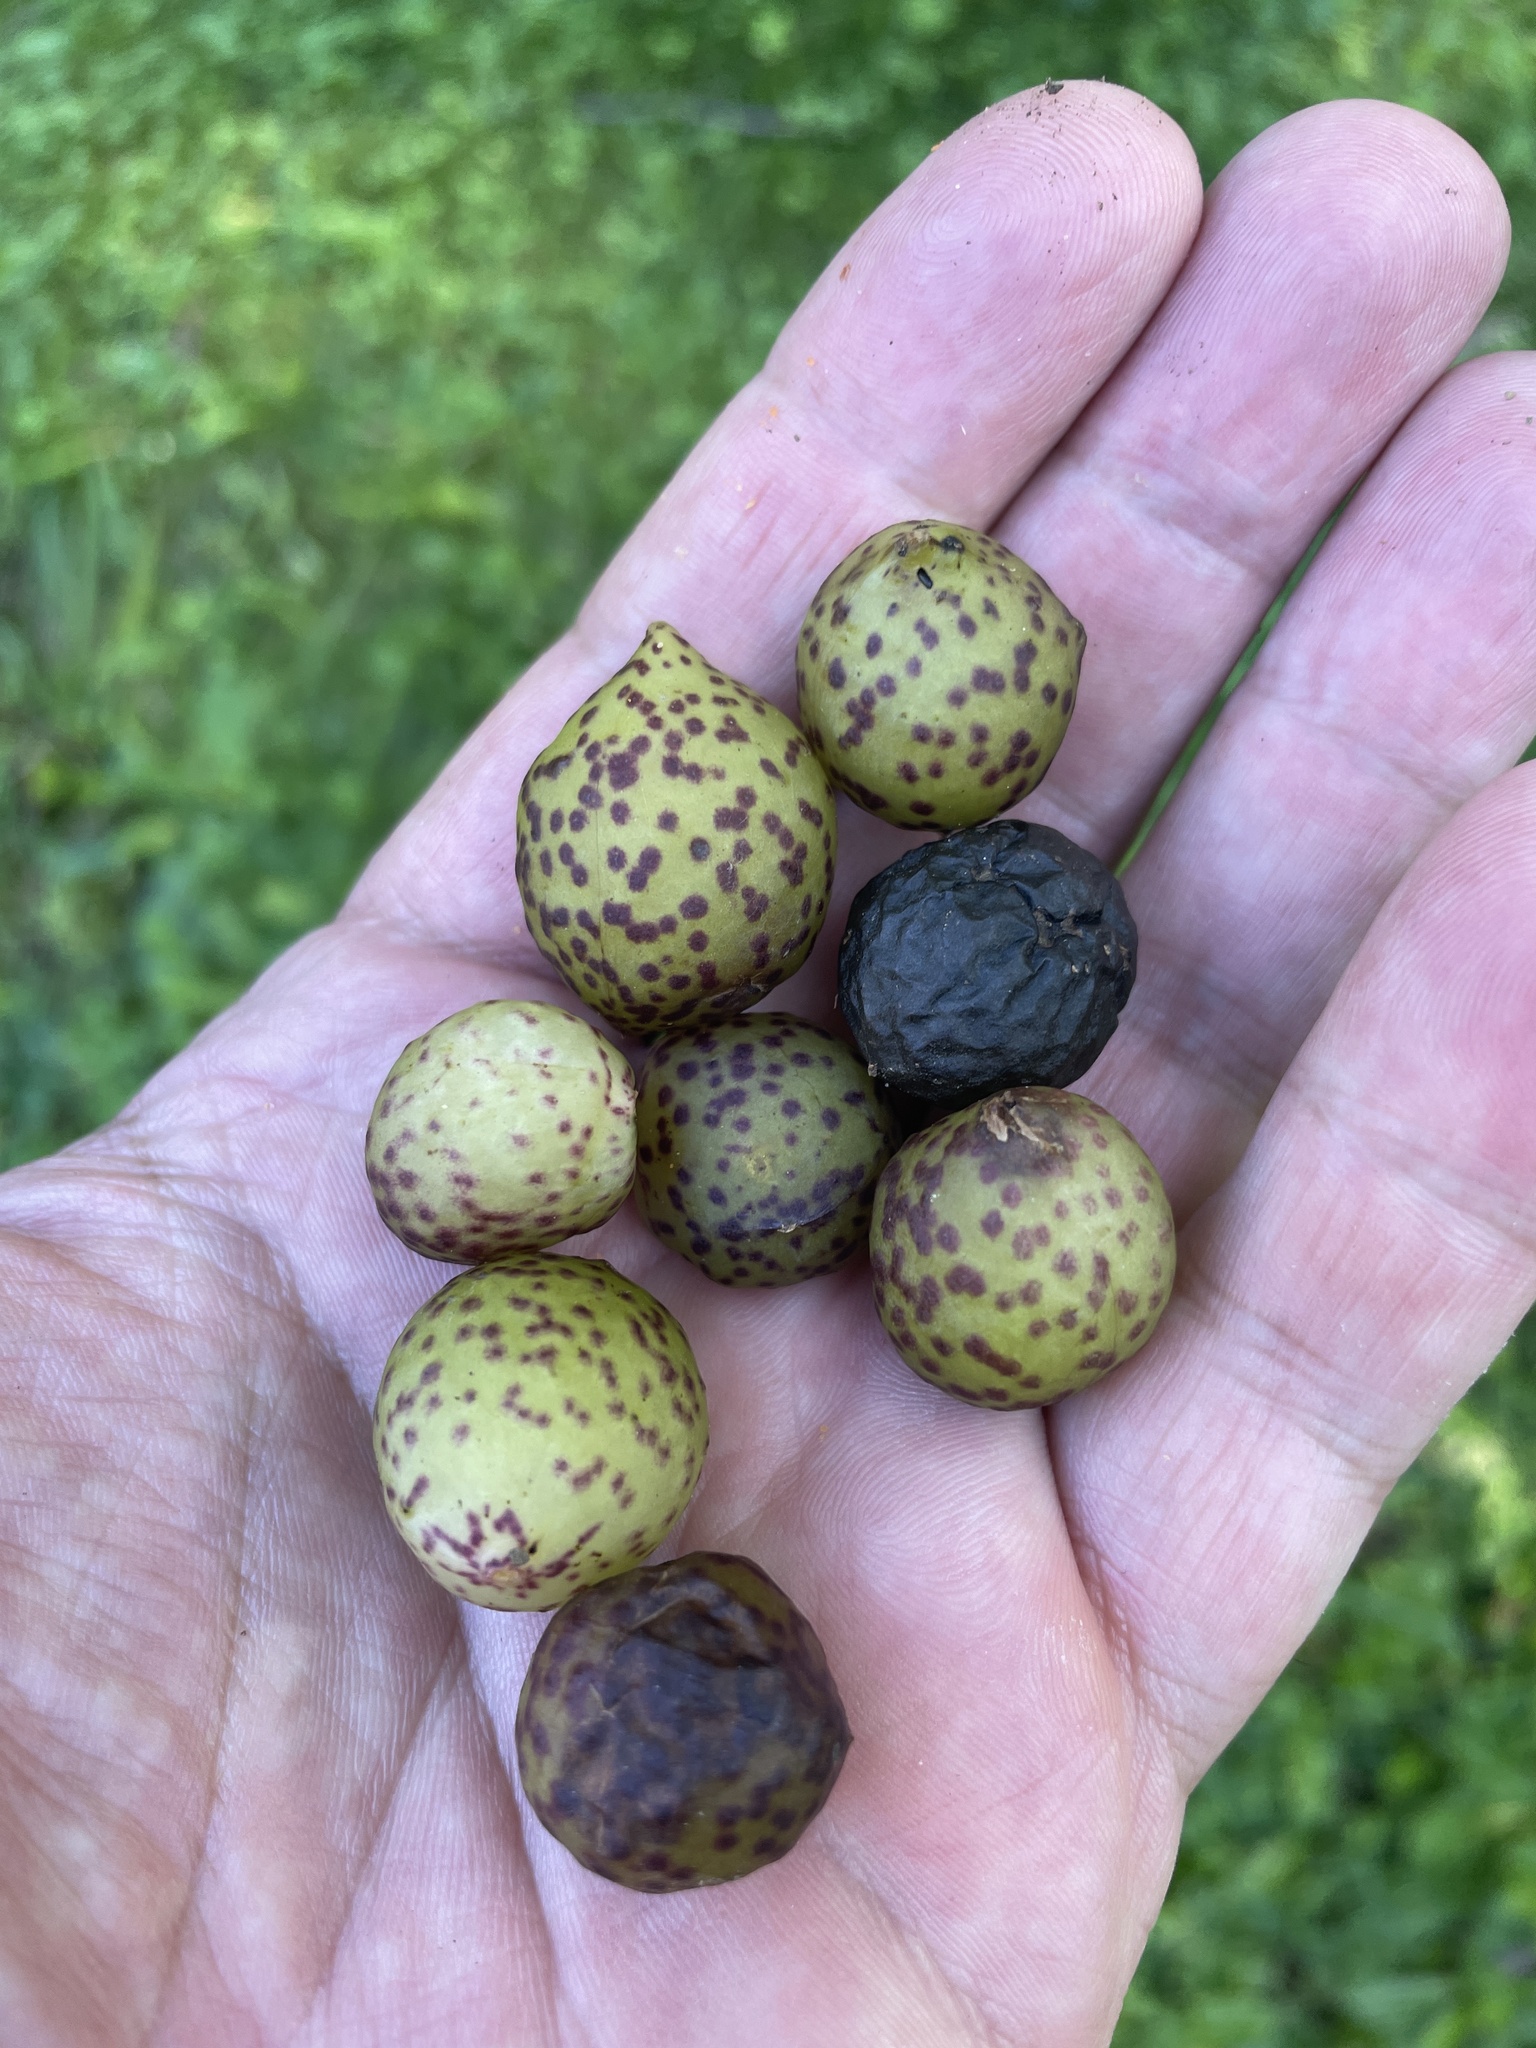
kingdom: Animalia
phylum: Arthropoda
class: Insecta
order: Hymenoptera
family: Cynipidae
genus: Amphibolips
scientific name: Amphibolips
